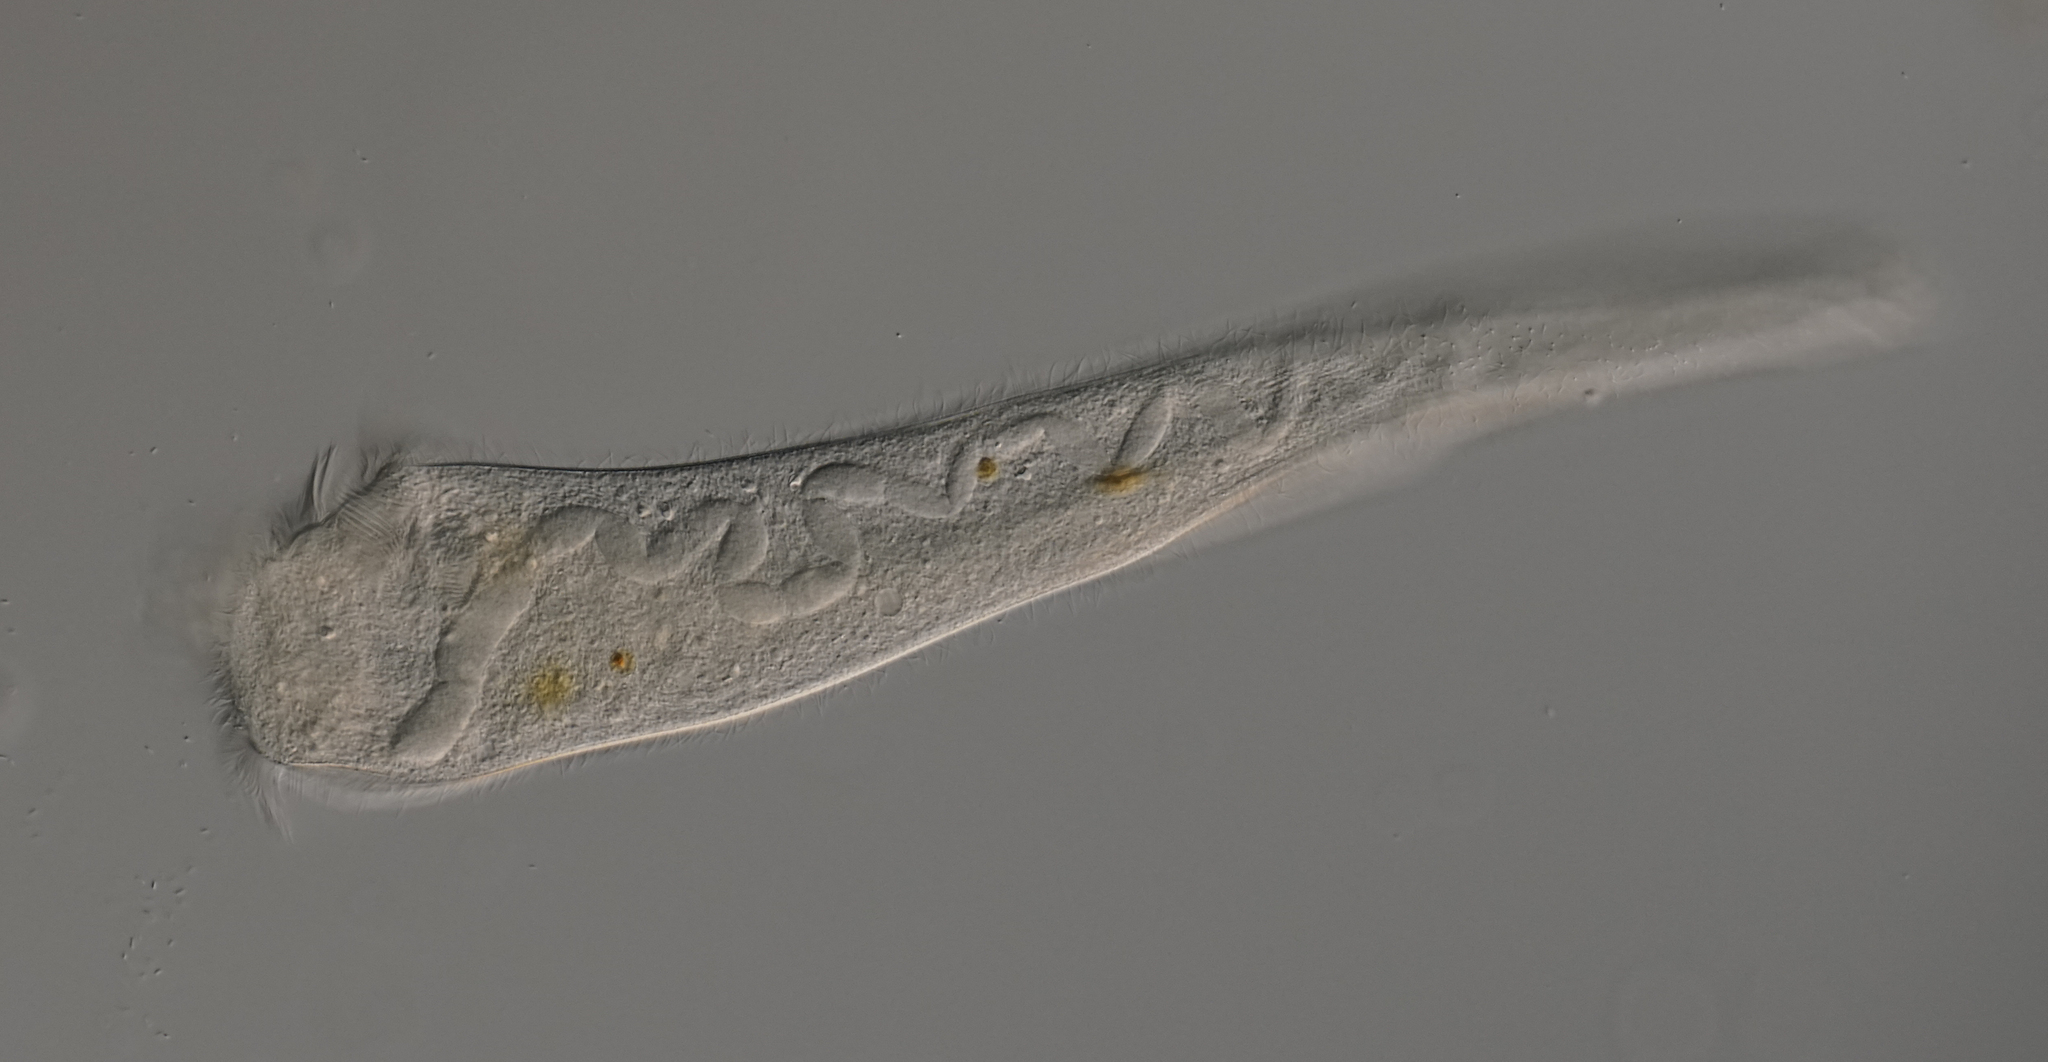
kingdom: Chromista
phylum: Ciliophora
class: Heterotrichea
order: Heterotrichida
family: Stentoridae
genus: Stentor
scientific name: Stentor roeselii
